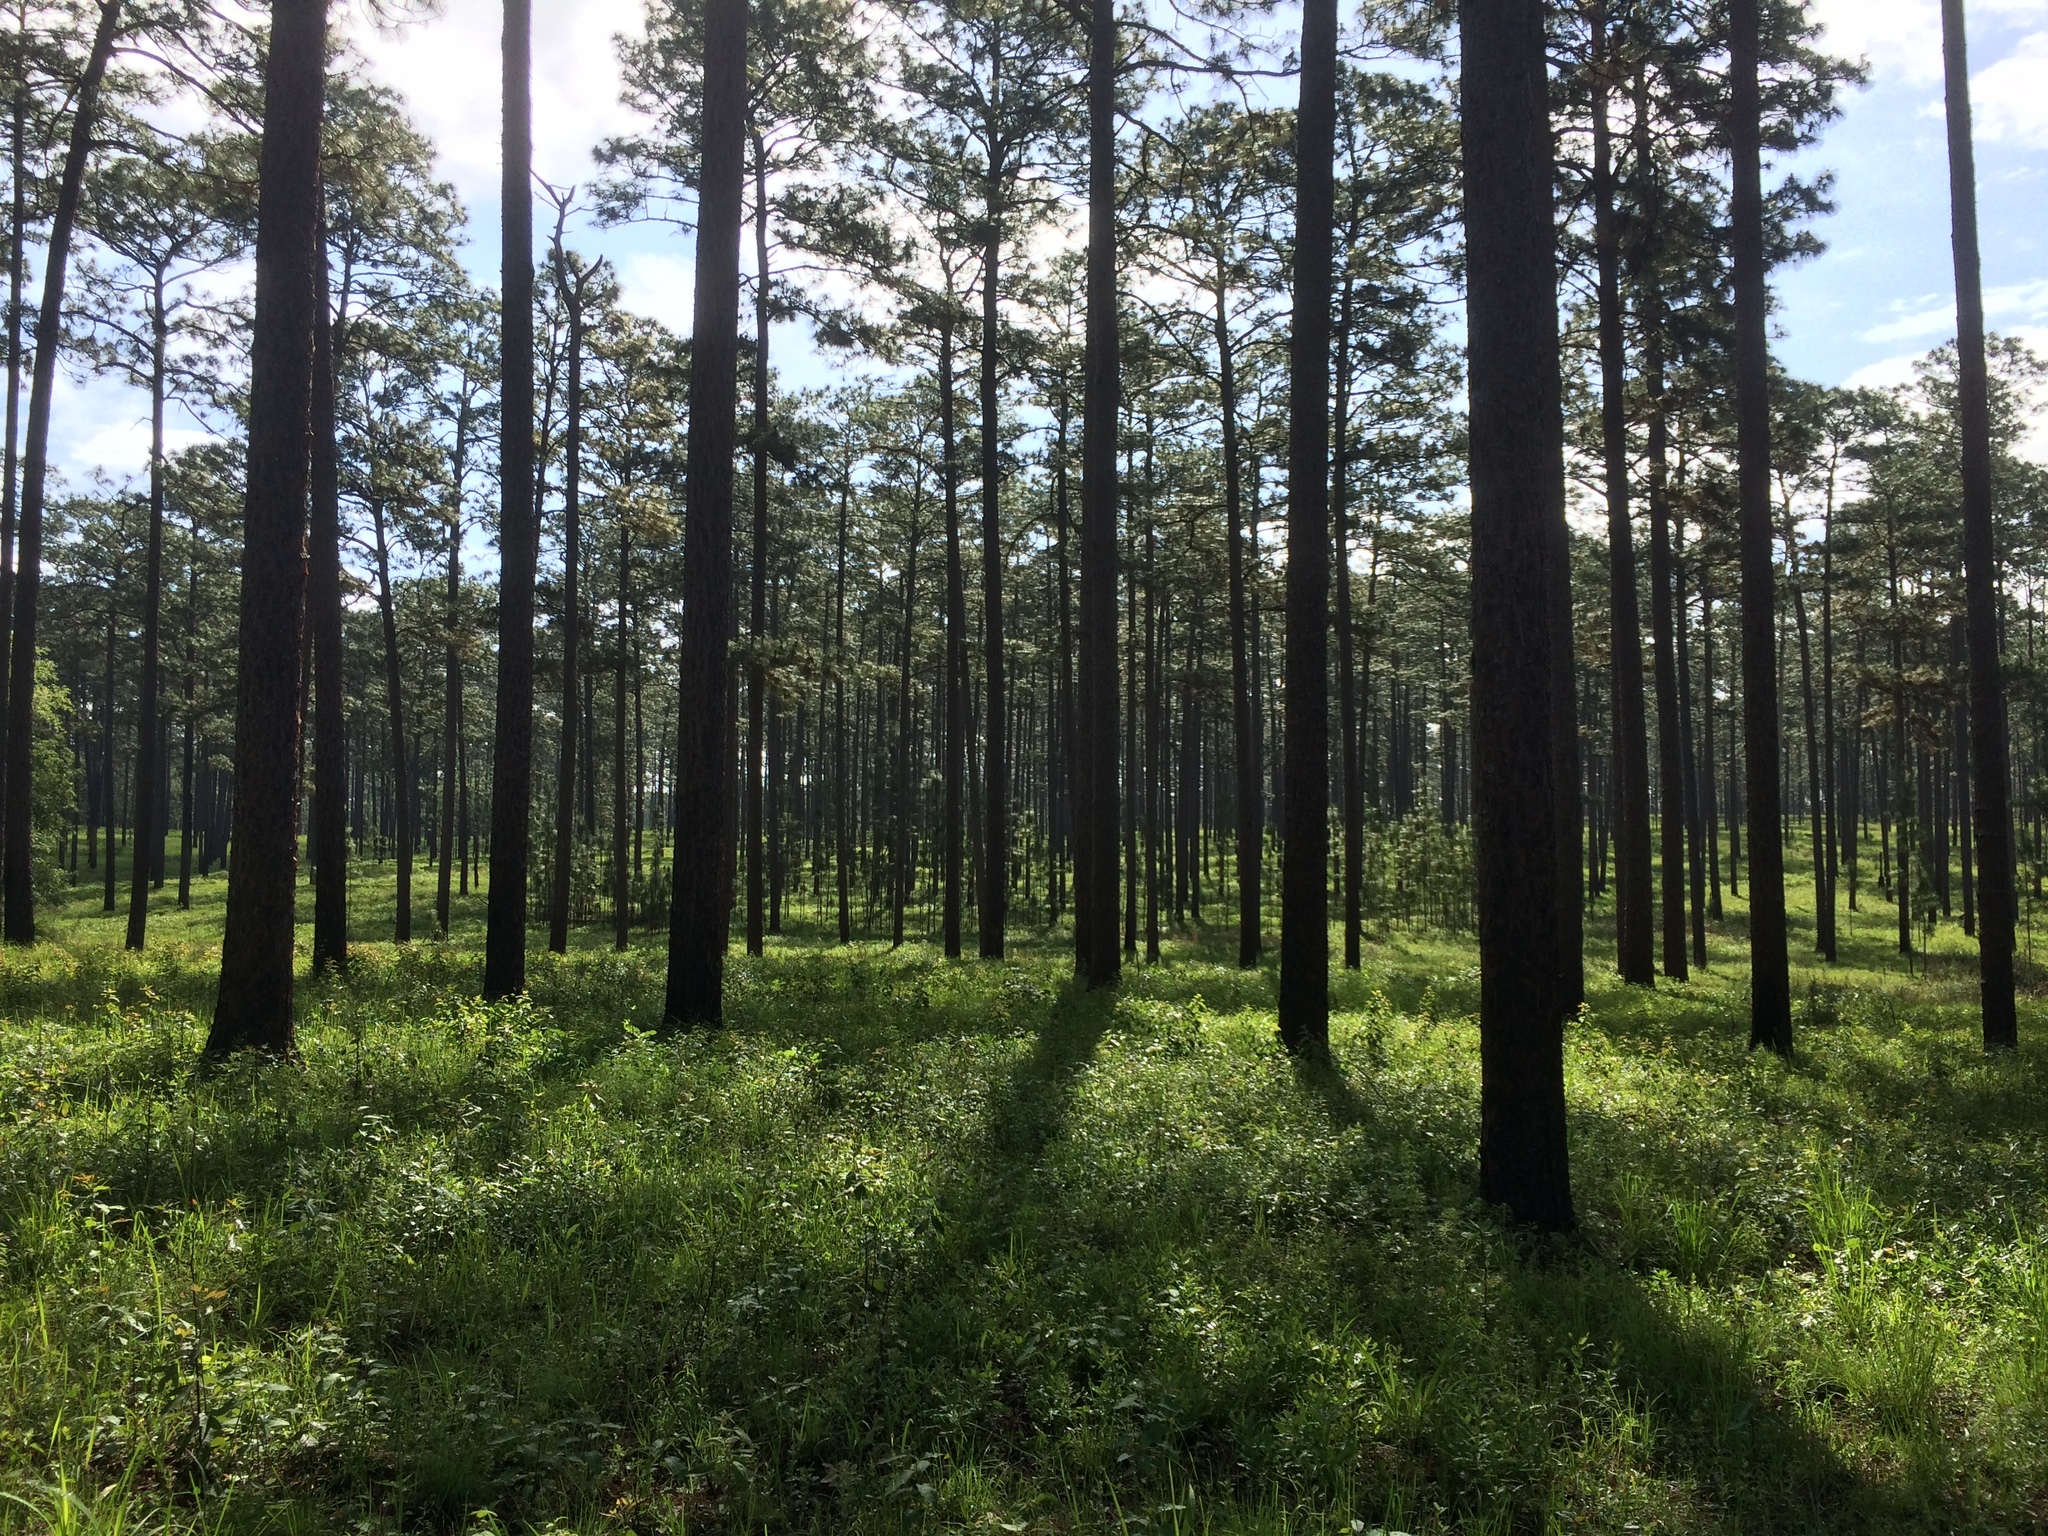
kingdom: Plantae
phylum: Tracheophyta
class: Pinopsida
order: Pinales
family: Pinaceae
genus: Pinus
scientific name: Pinus palustris
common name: Longleaf pine
